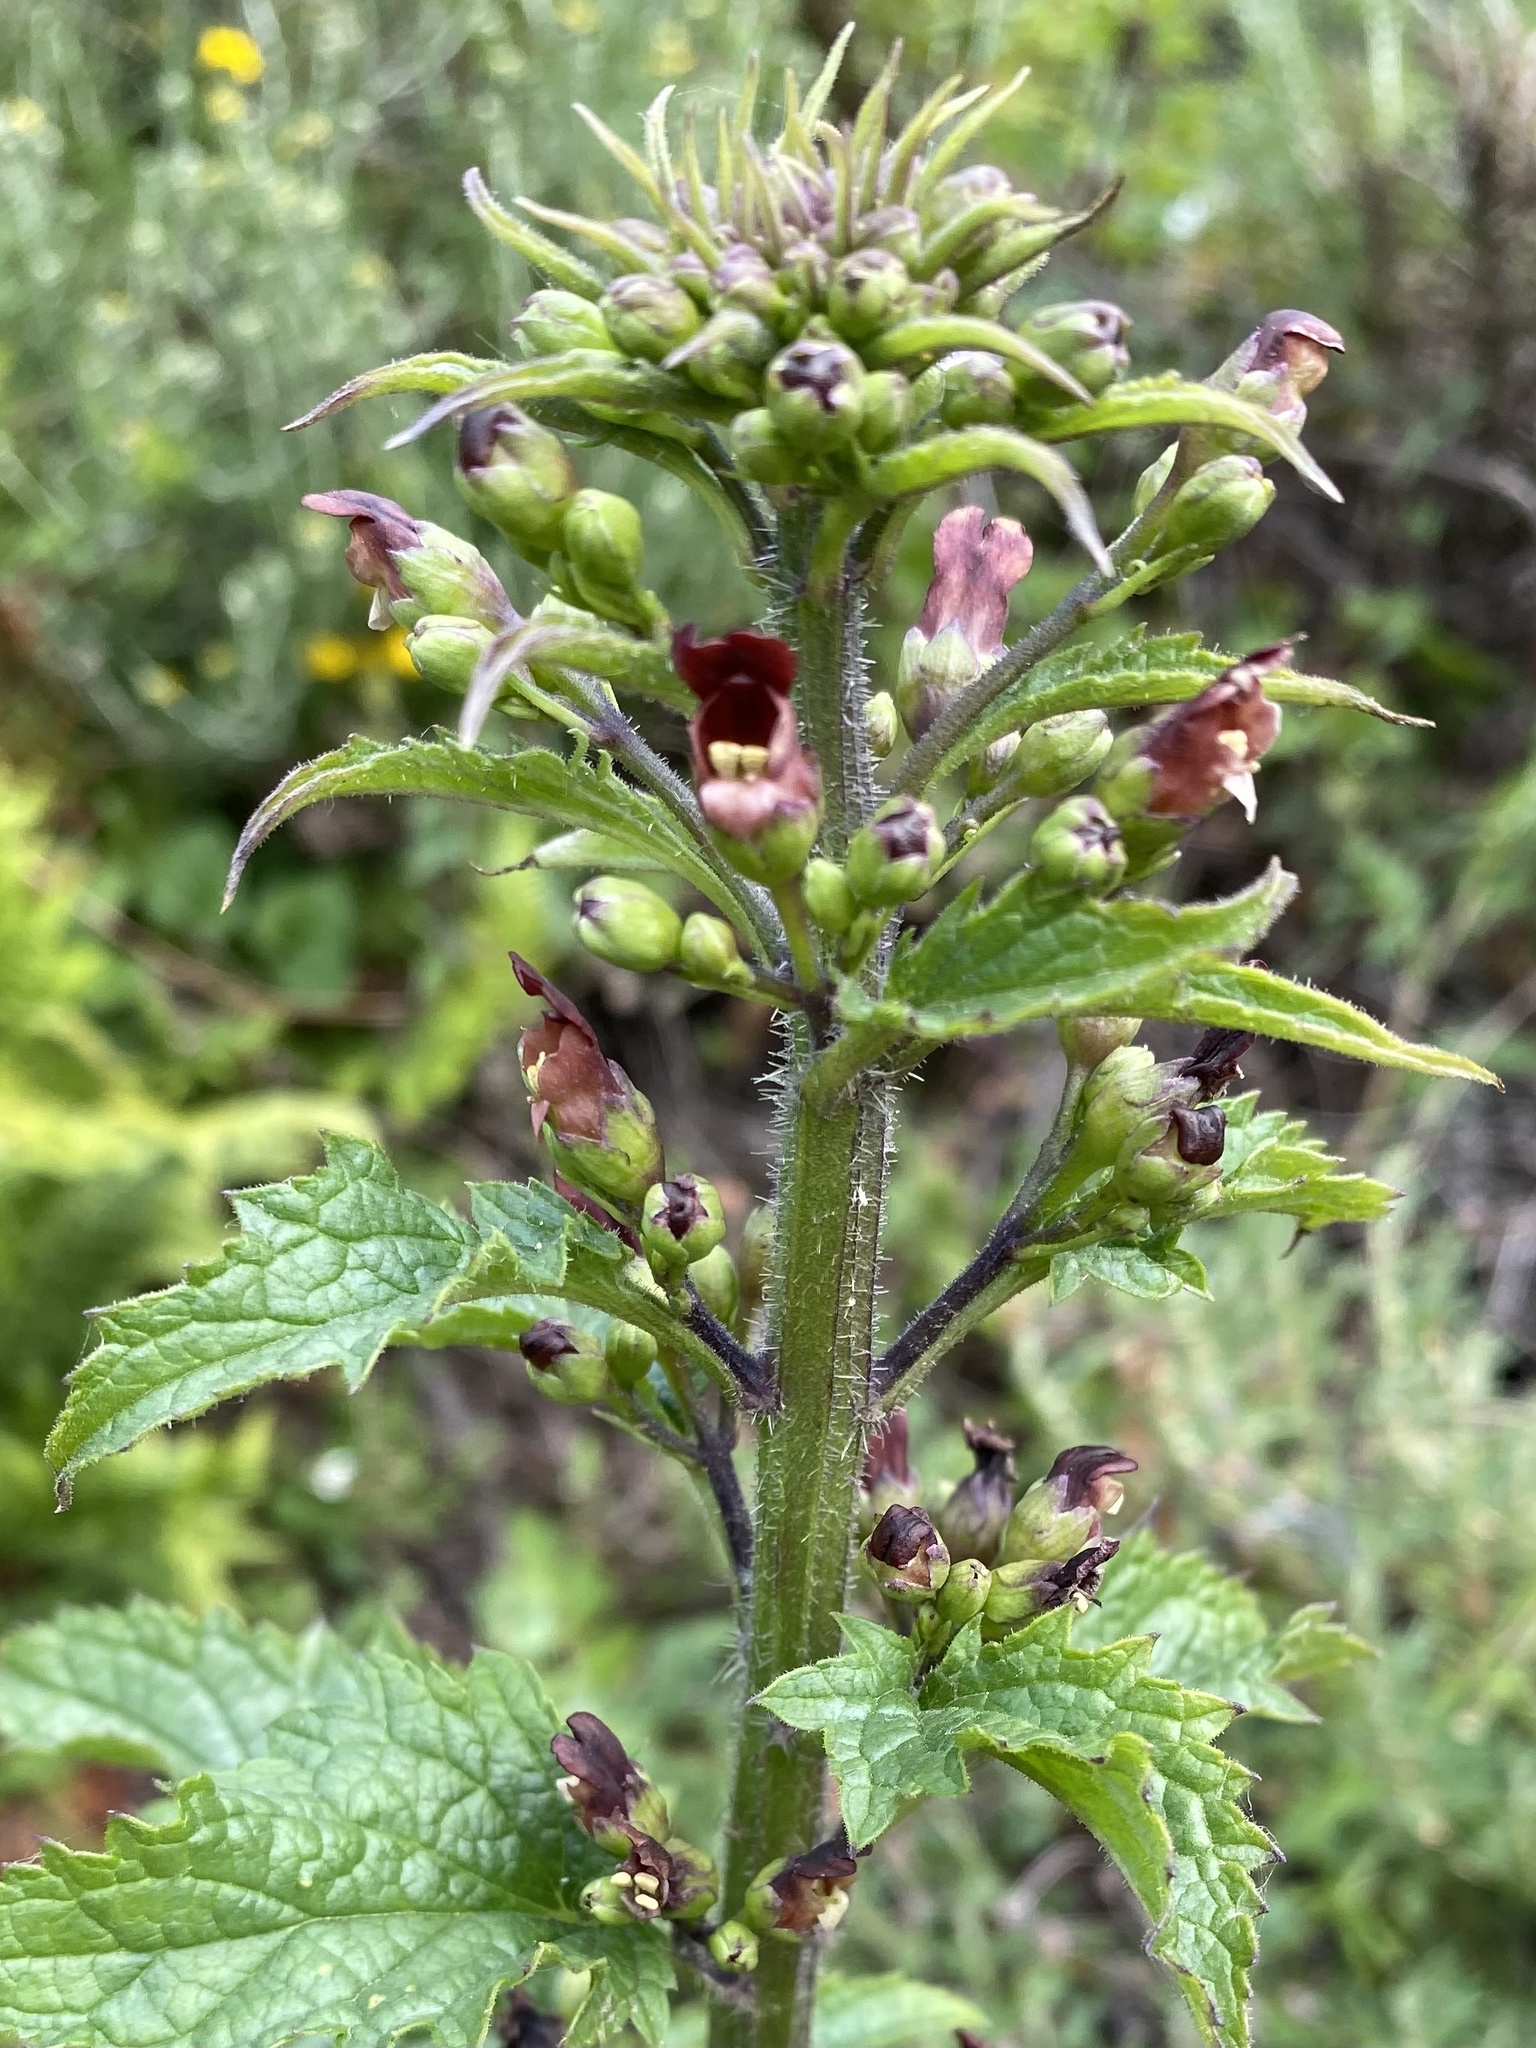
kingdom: Plantae
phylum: Tracheophyta
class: Magnoliopsida
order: Lamiales
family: Scrophulariaceae
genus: Scrophularia
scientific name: Scrophularia californica
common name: California figwort
